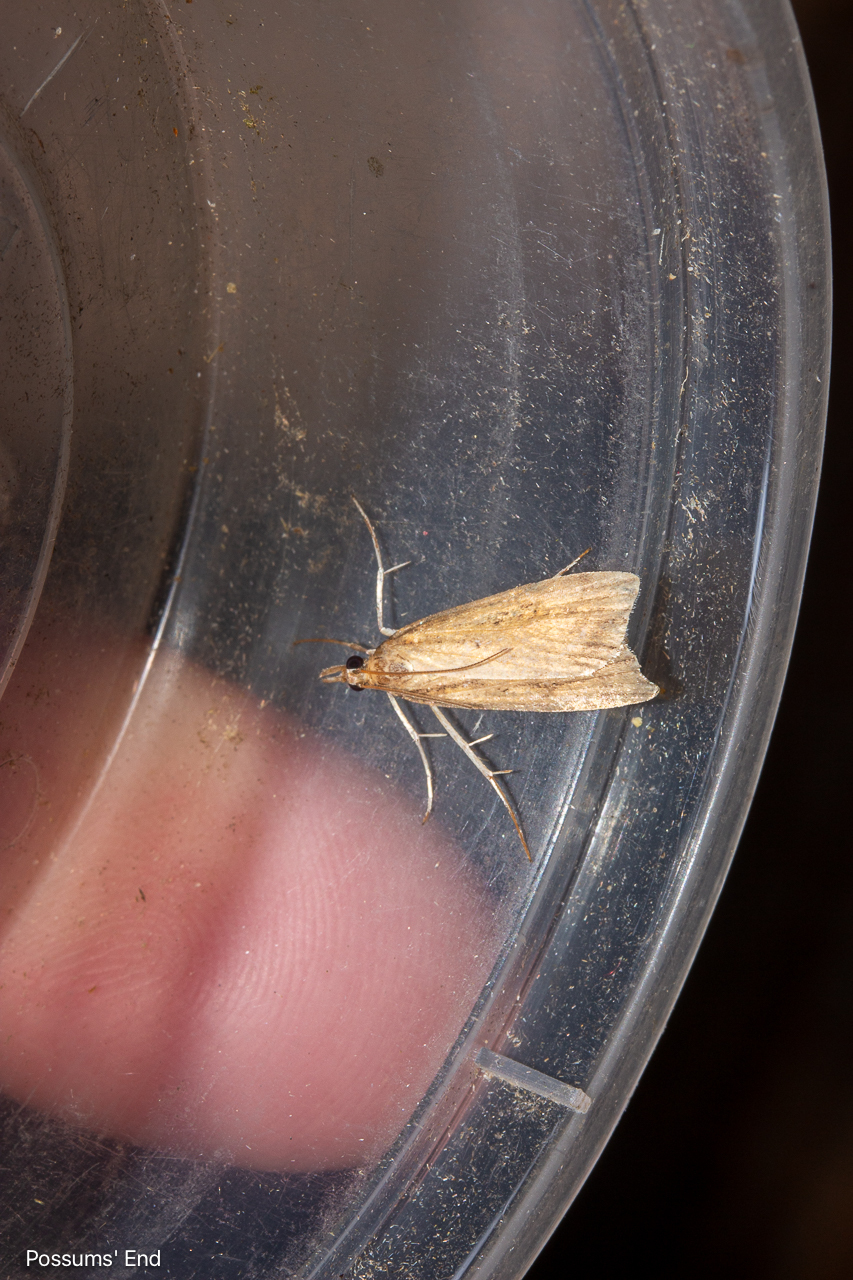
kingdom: Animalia
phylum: Arthropoda
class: Insecta
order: Lepidoptera
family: Crambidae
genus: Eudonia
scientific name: Eudonia sabulosella
